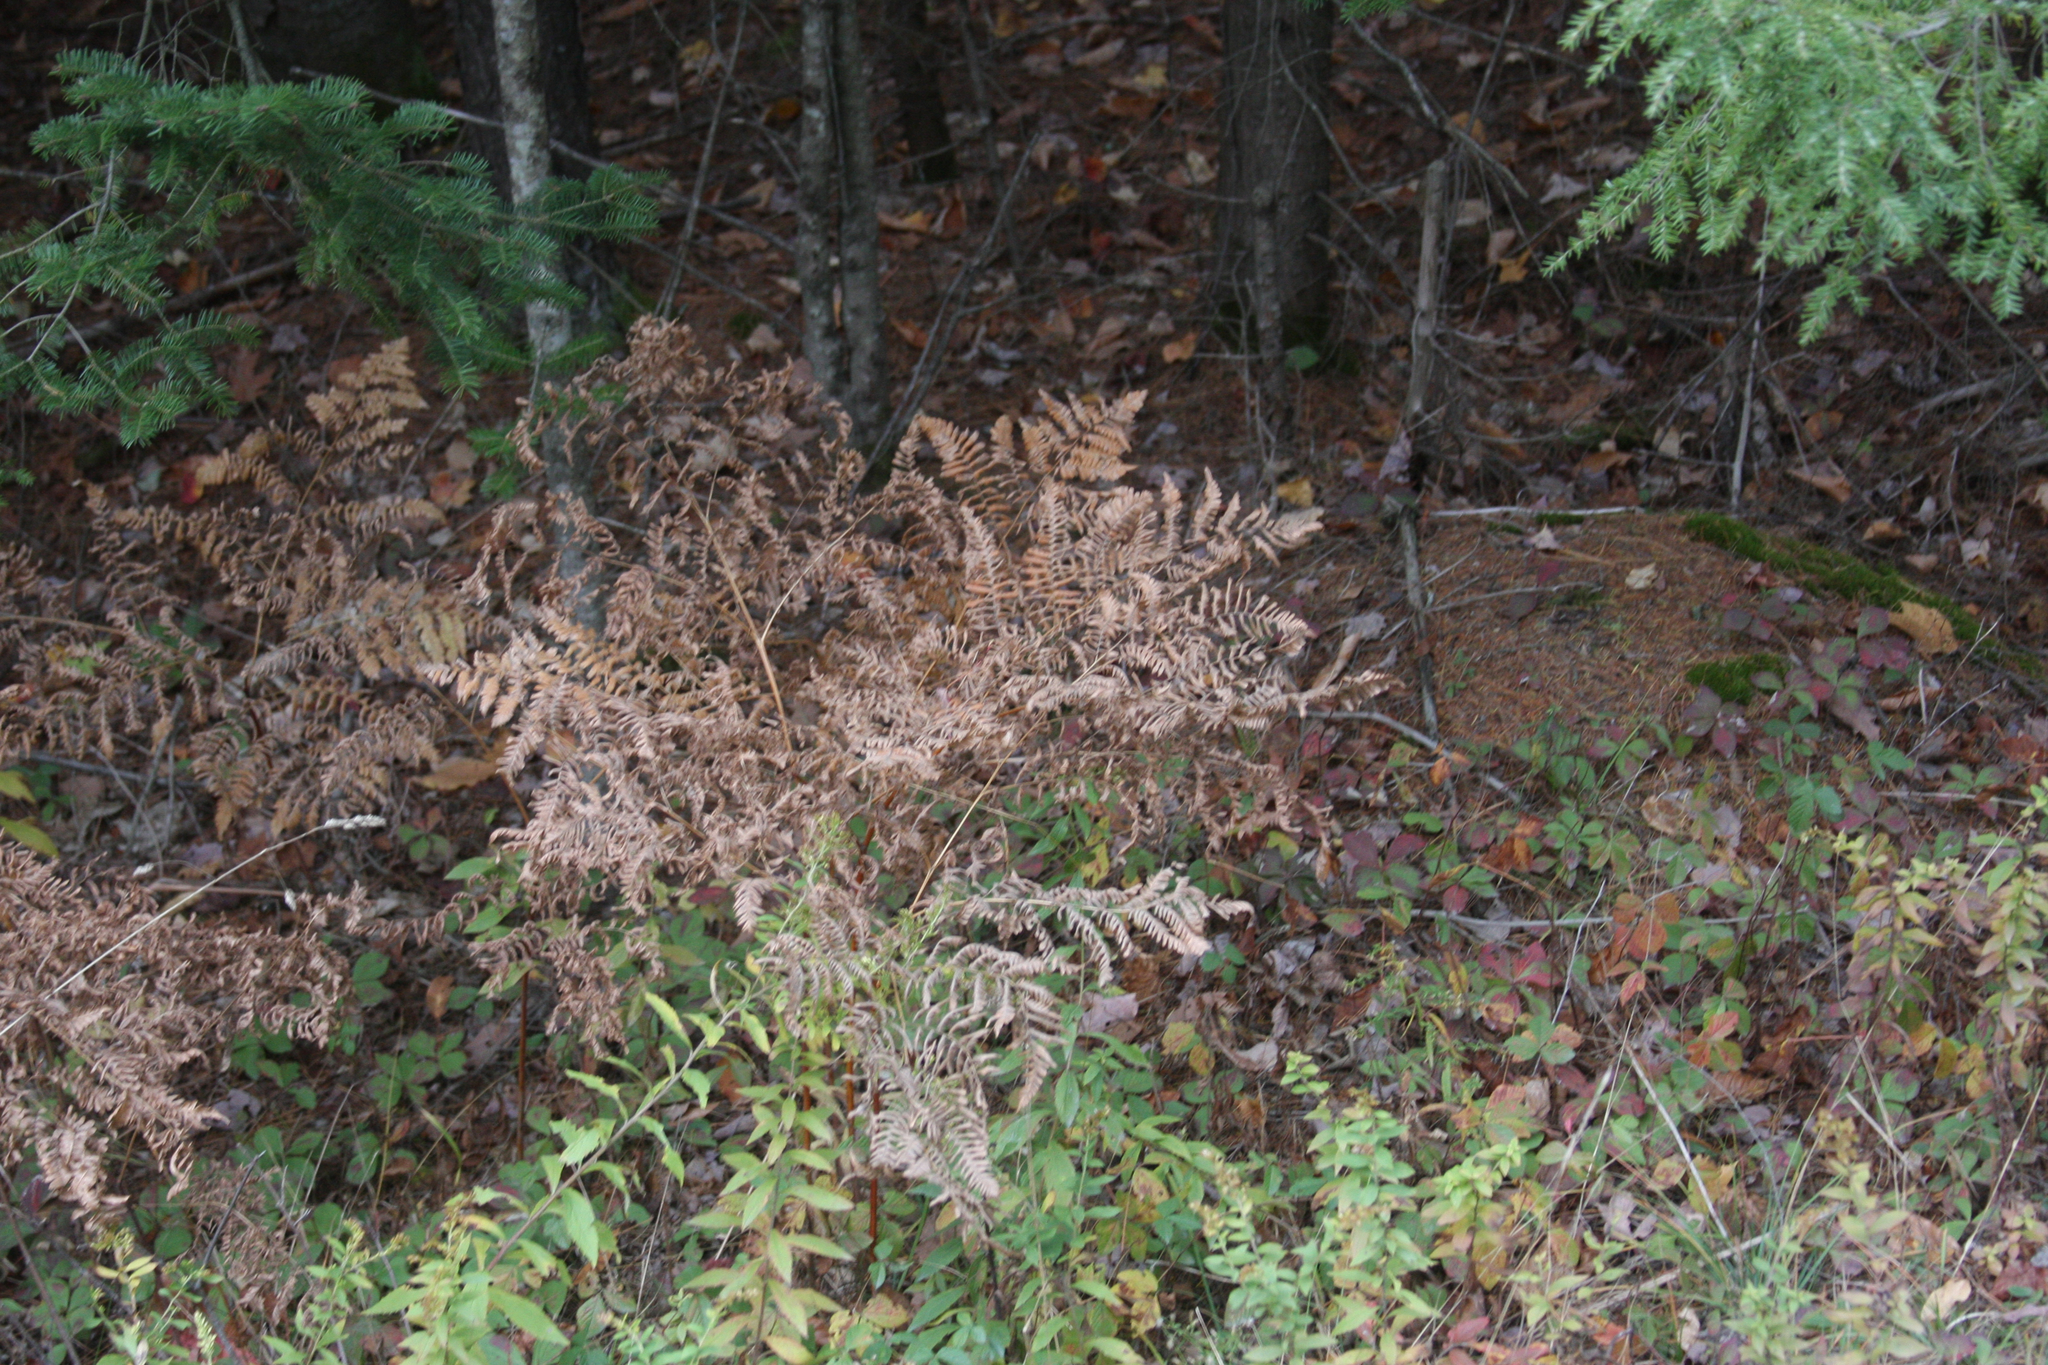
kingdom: Plantae
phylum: Tracheophyta
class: Polypodiopsida
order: Polypodiales
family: Dennstaedtiaceae
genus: Pteridium
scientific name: Pteridium aquilinum
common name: Bracken
